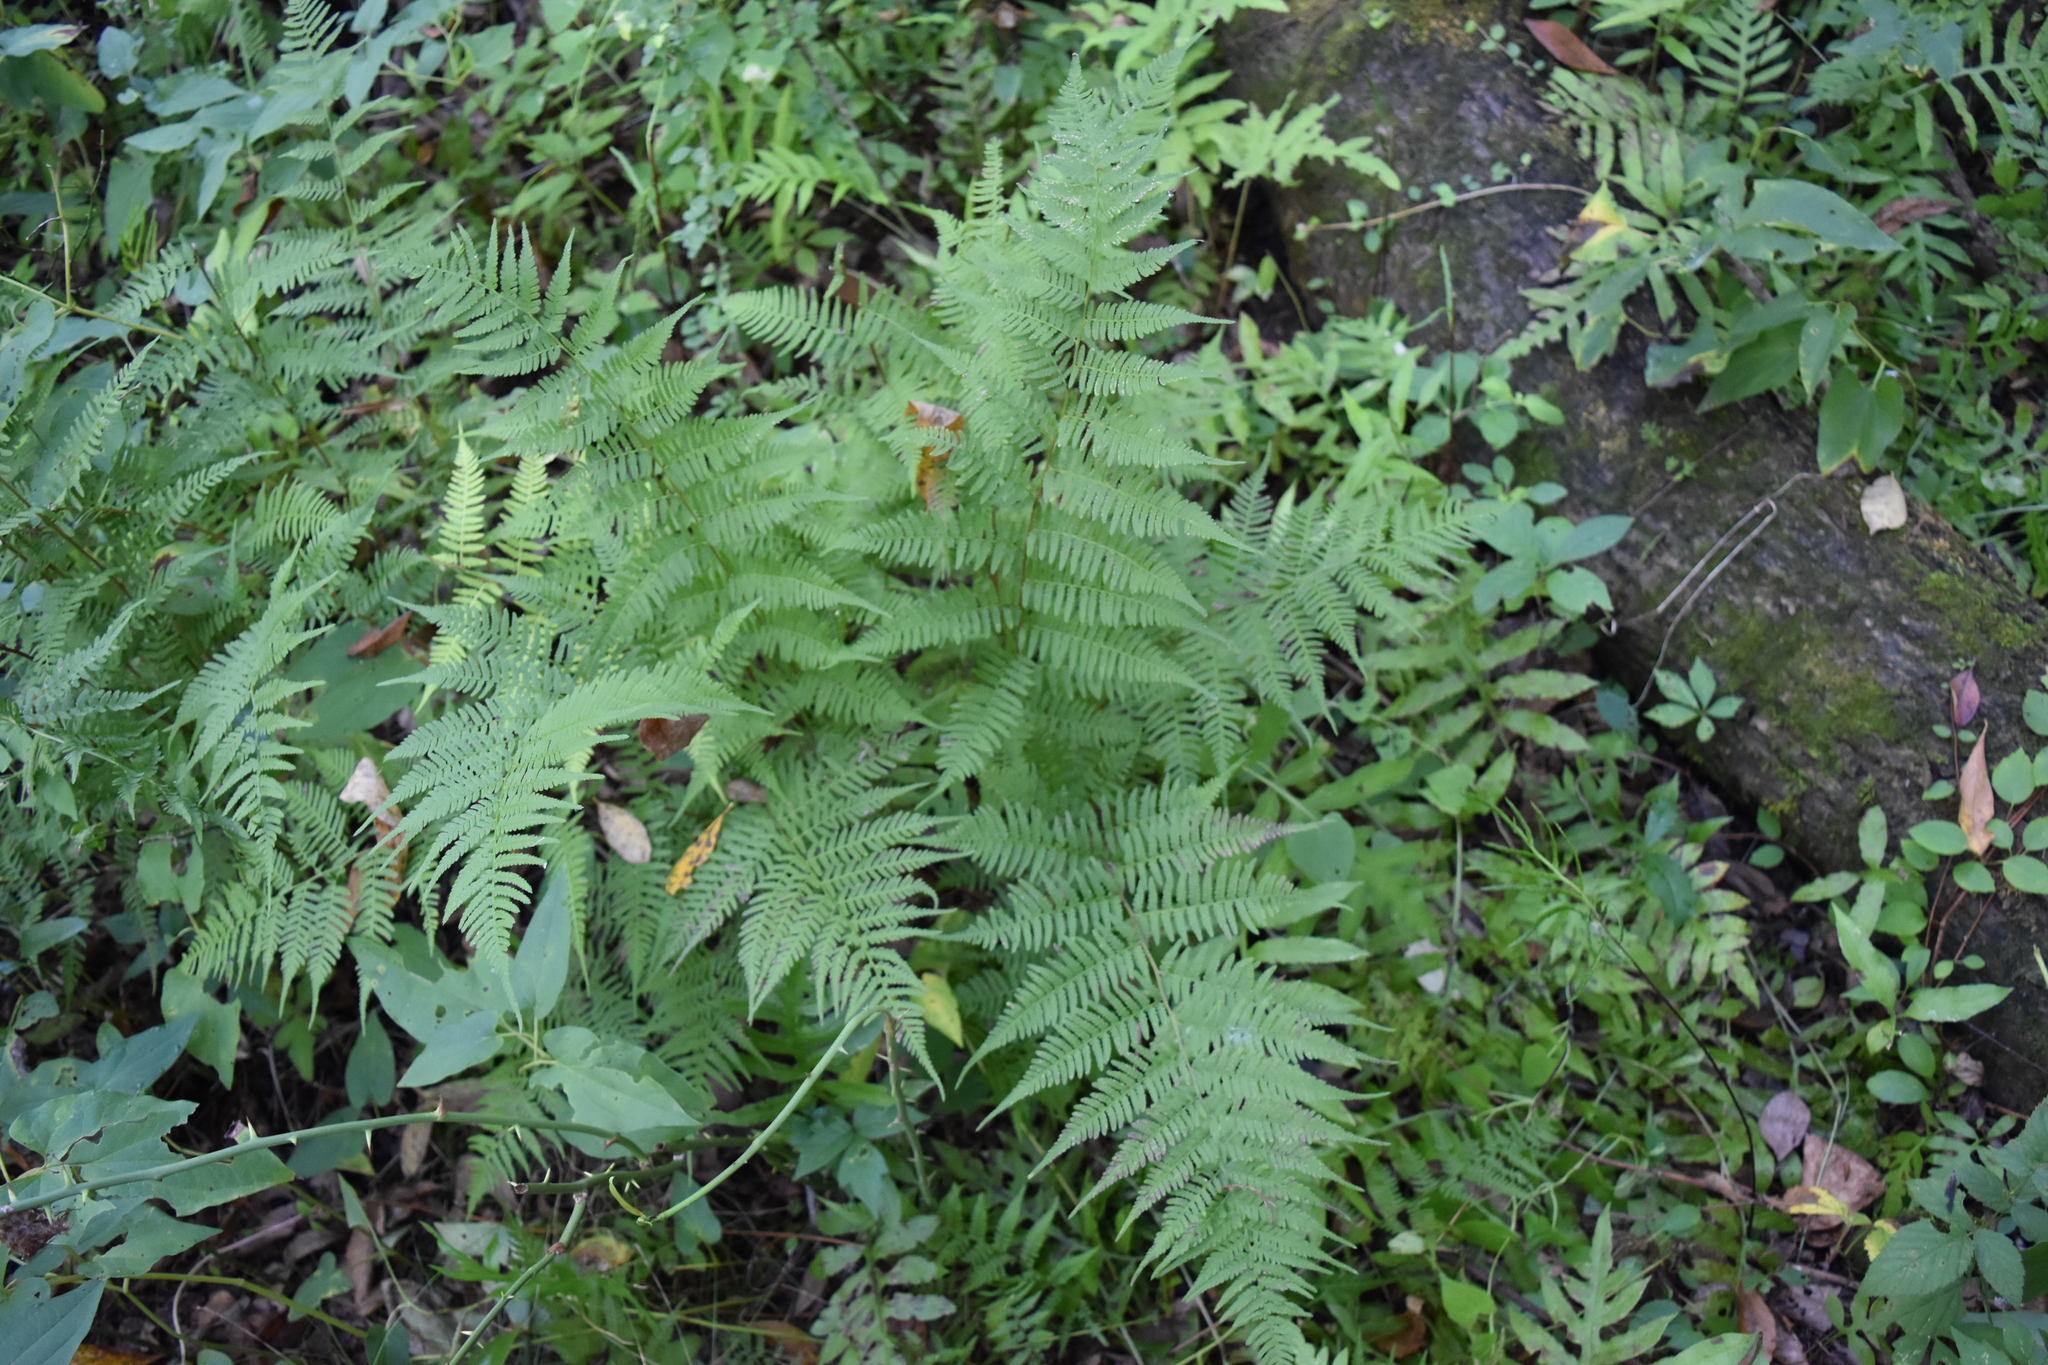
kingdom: Plantae
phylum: Tracheophyta
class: Polypodiopsida
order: Polypodiales
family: Athyriaceae
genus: Athyrium
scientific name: Athyrium asplenioides
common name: Southern lady fern
